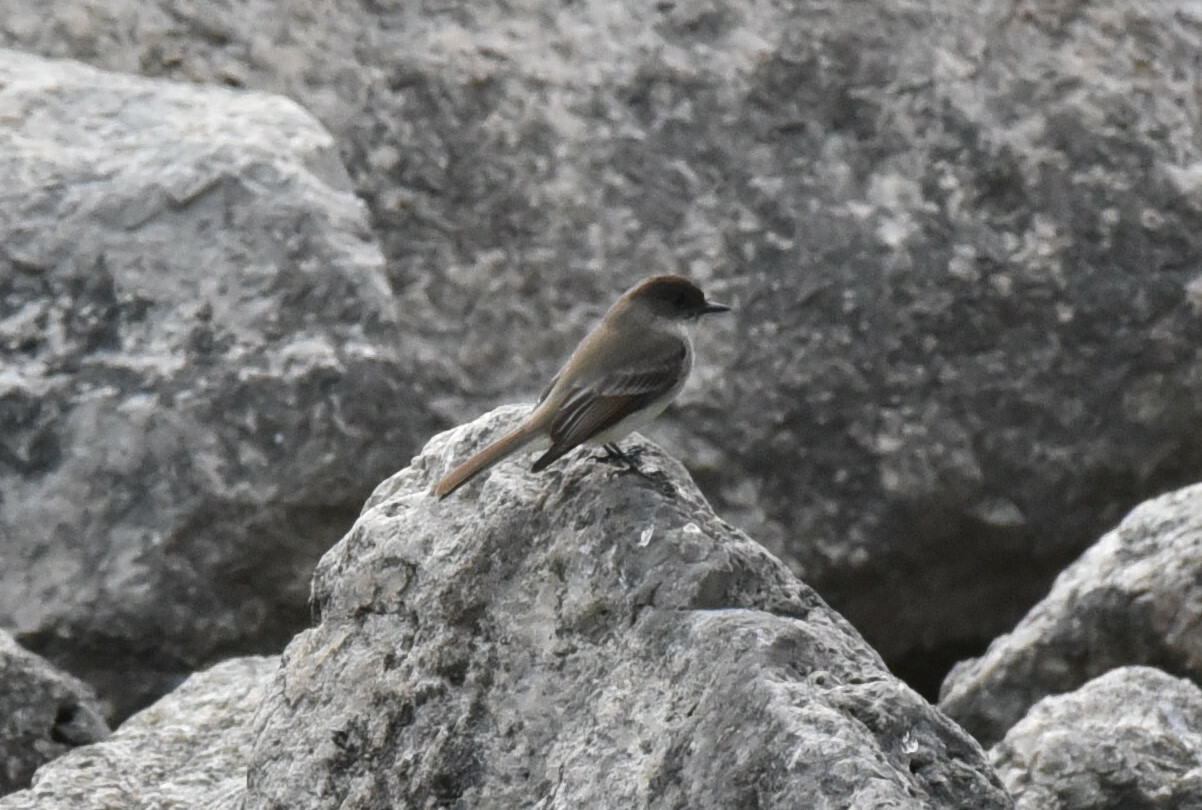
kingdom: Animalia
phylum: Chordata
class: Aves
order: Passeriformes
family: Tyrannidae
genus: Sayornis
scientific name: Sayornis phoebe
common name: Eastern phoebe
